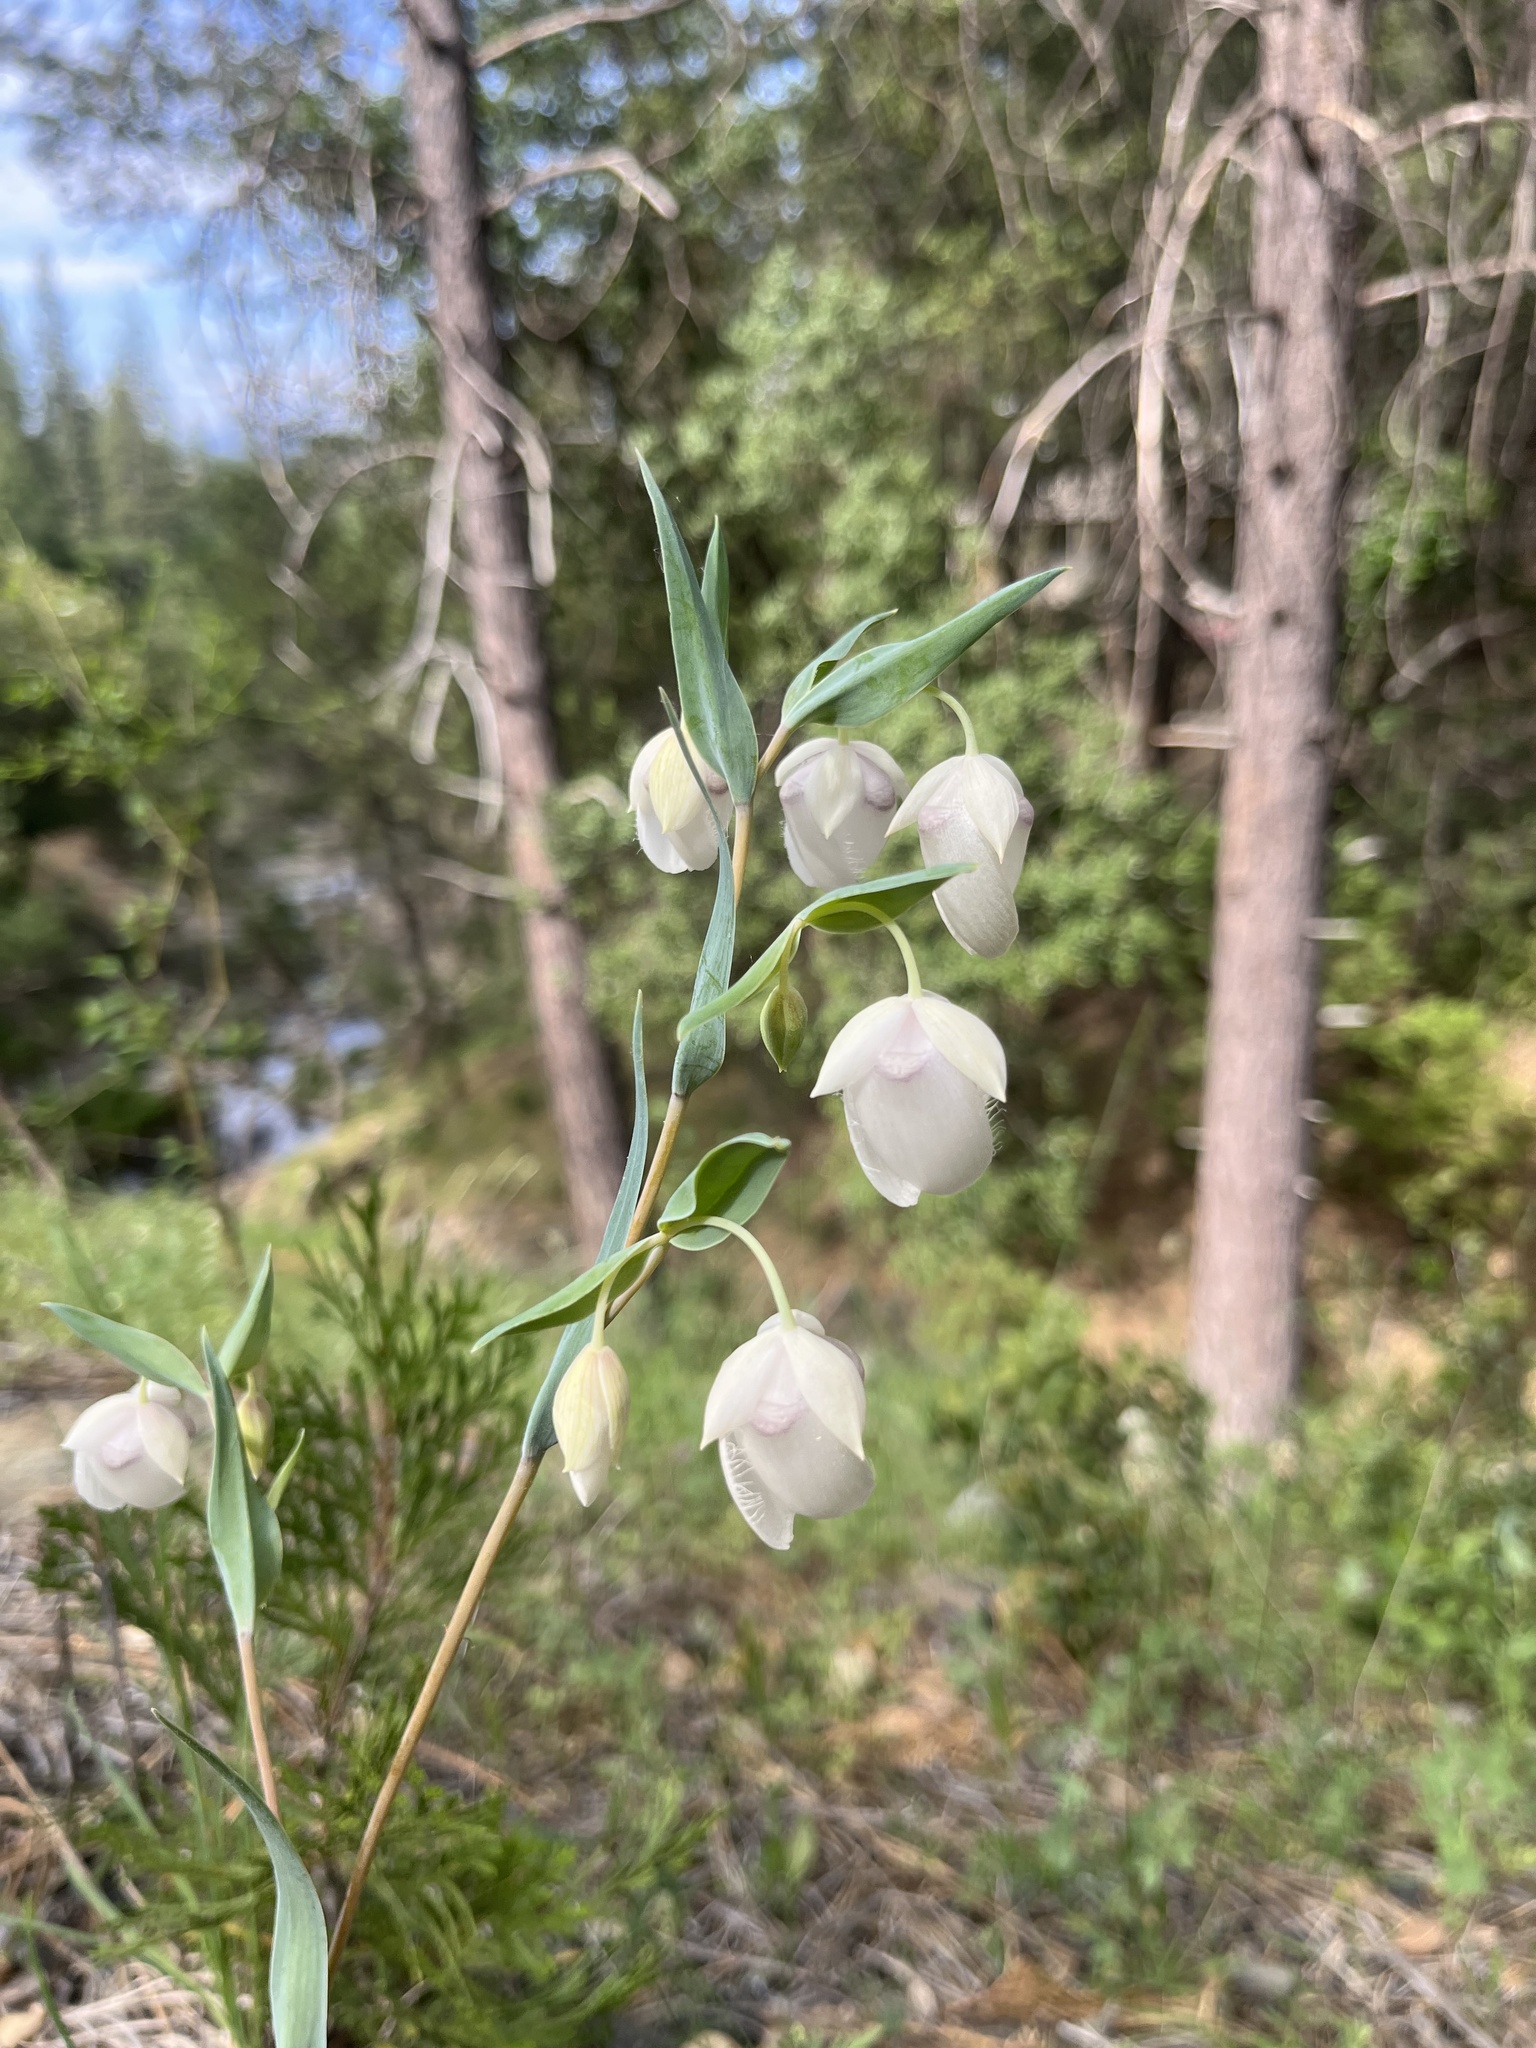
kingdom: Plantae
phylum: Tracheophyta
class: Liliopsida
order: Liliales
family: Liliaceae
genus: Calochortus
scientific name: Calochortus albus
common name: Fairy-lantern
